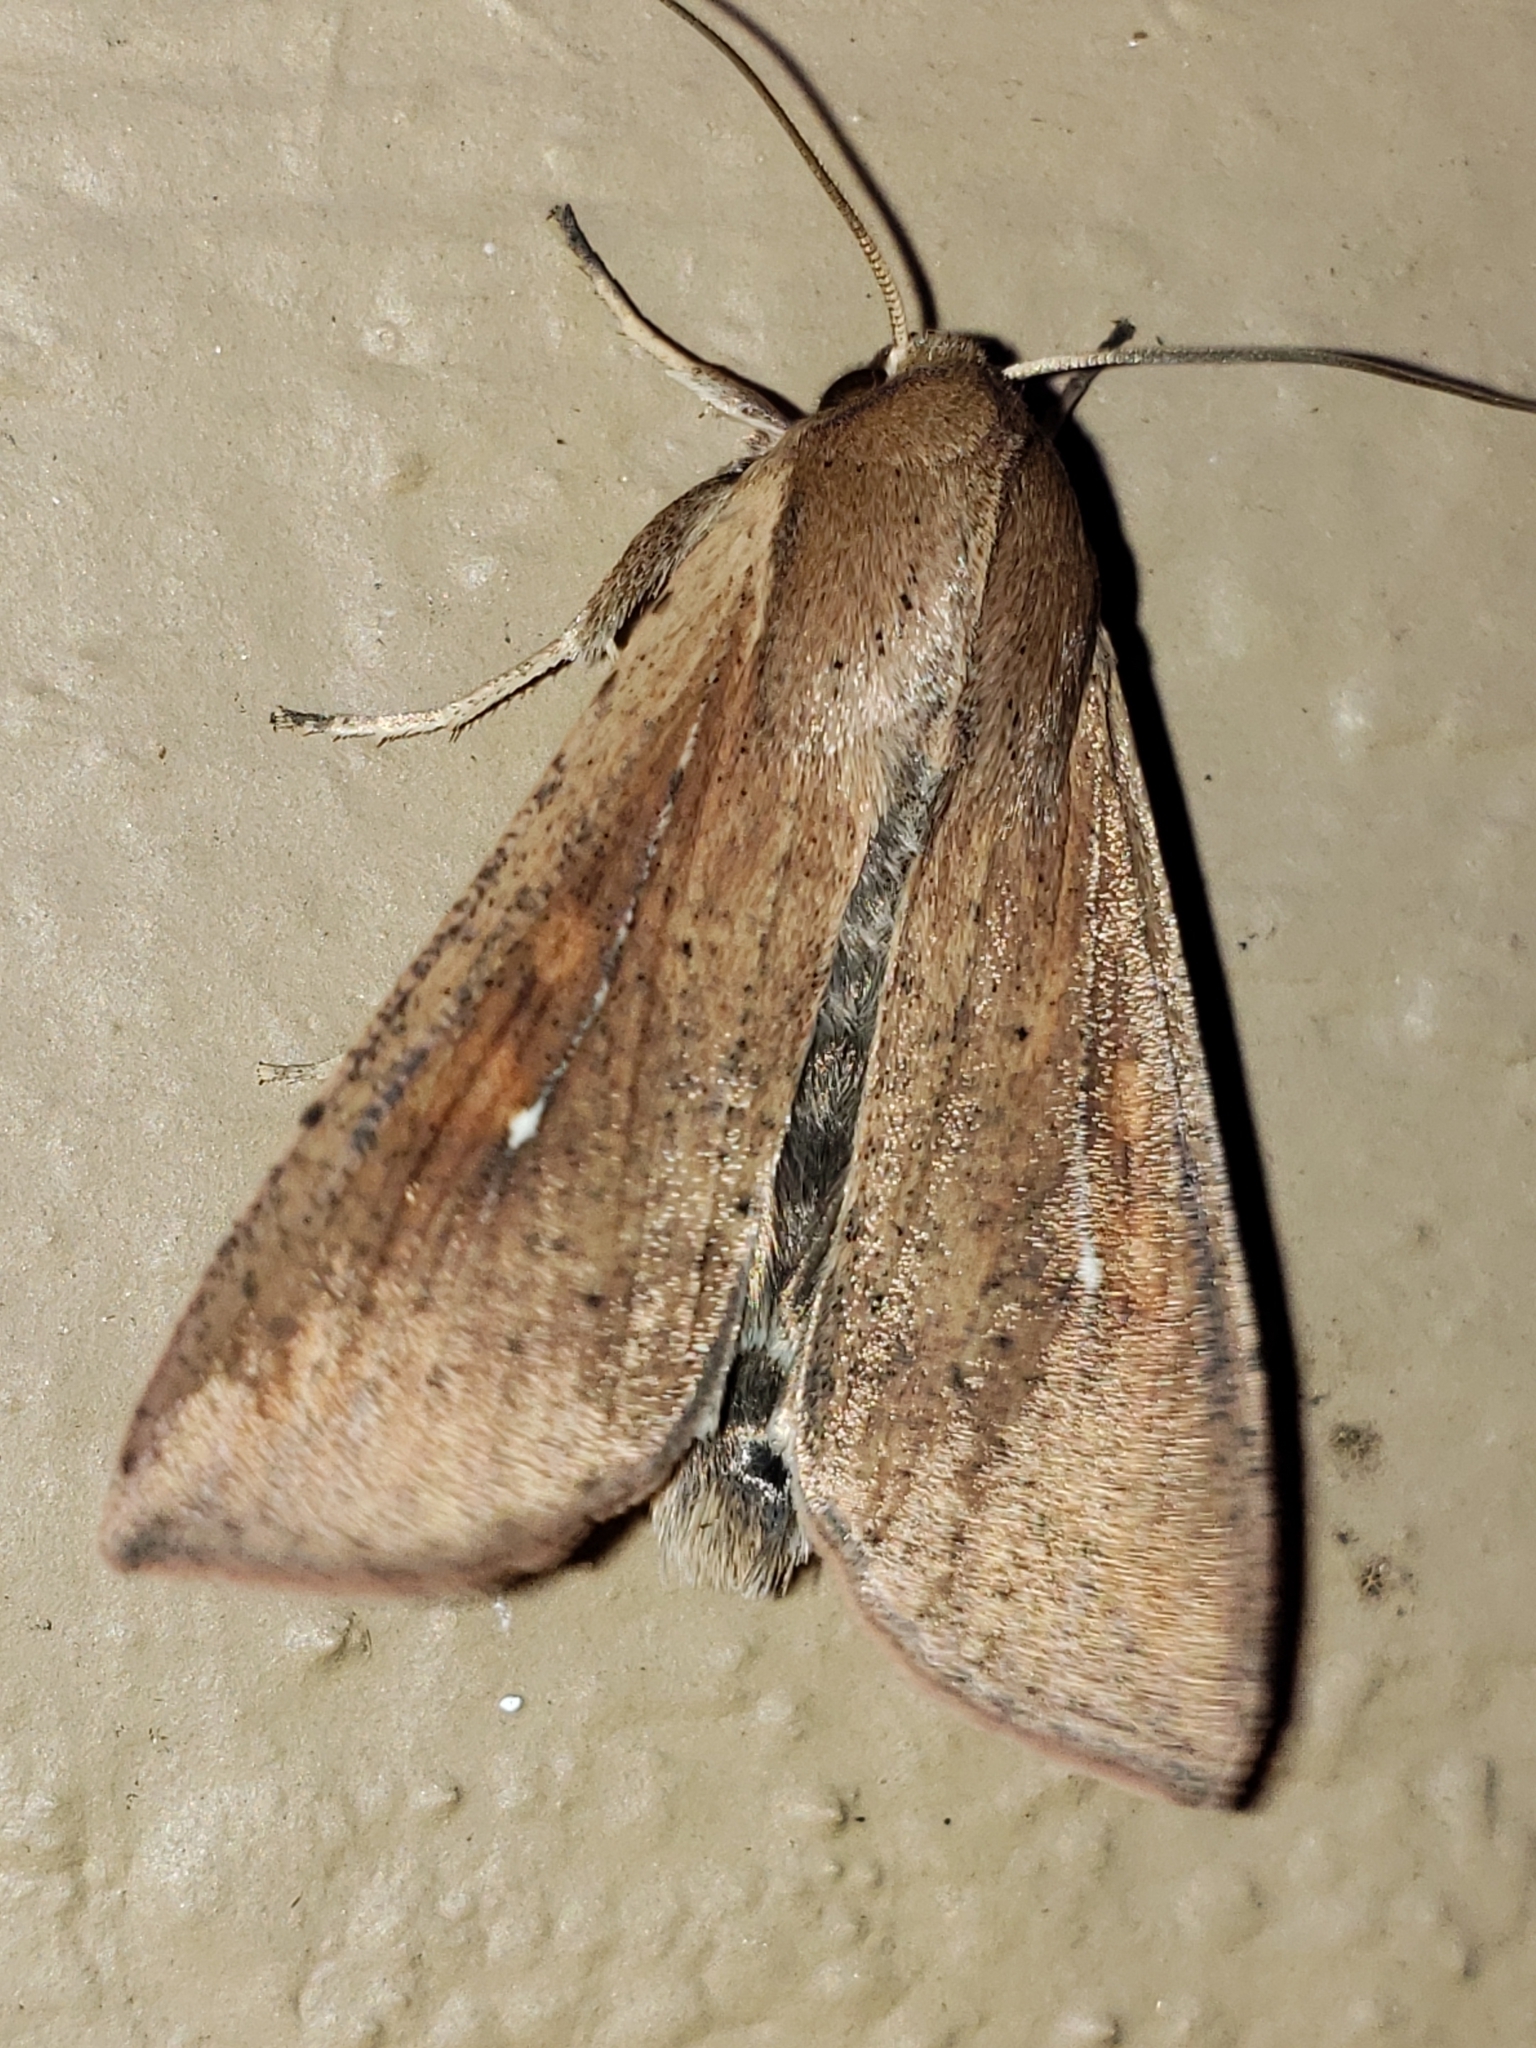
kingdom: Animalia
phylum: Arthropoda
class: Insecta
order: Lepidoptera
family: Noctuidae
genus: Mythimna
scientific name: Mythimna unipuncta
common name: White-speck
